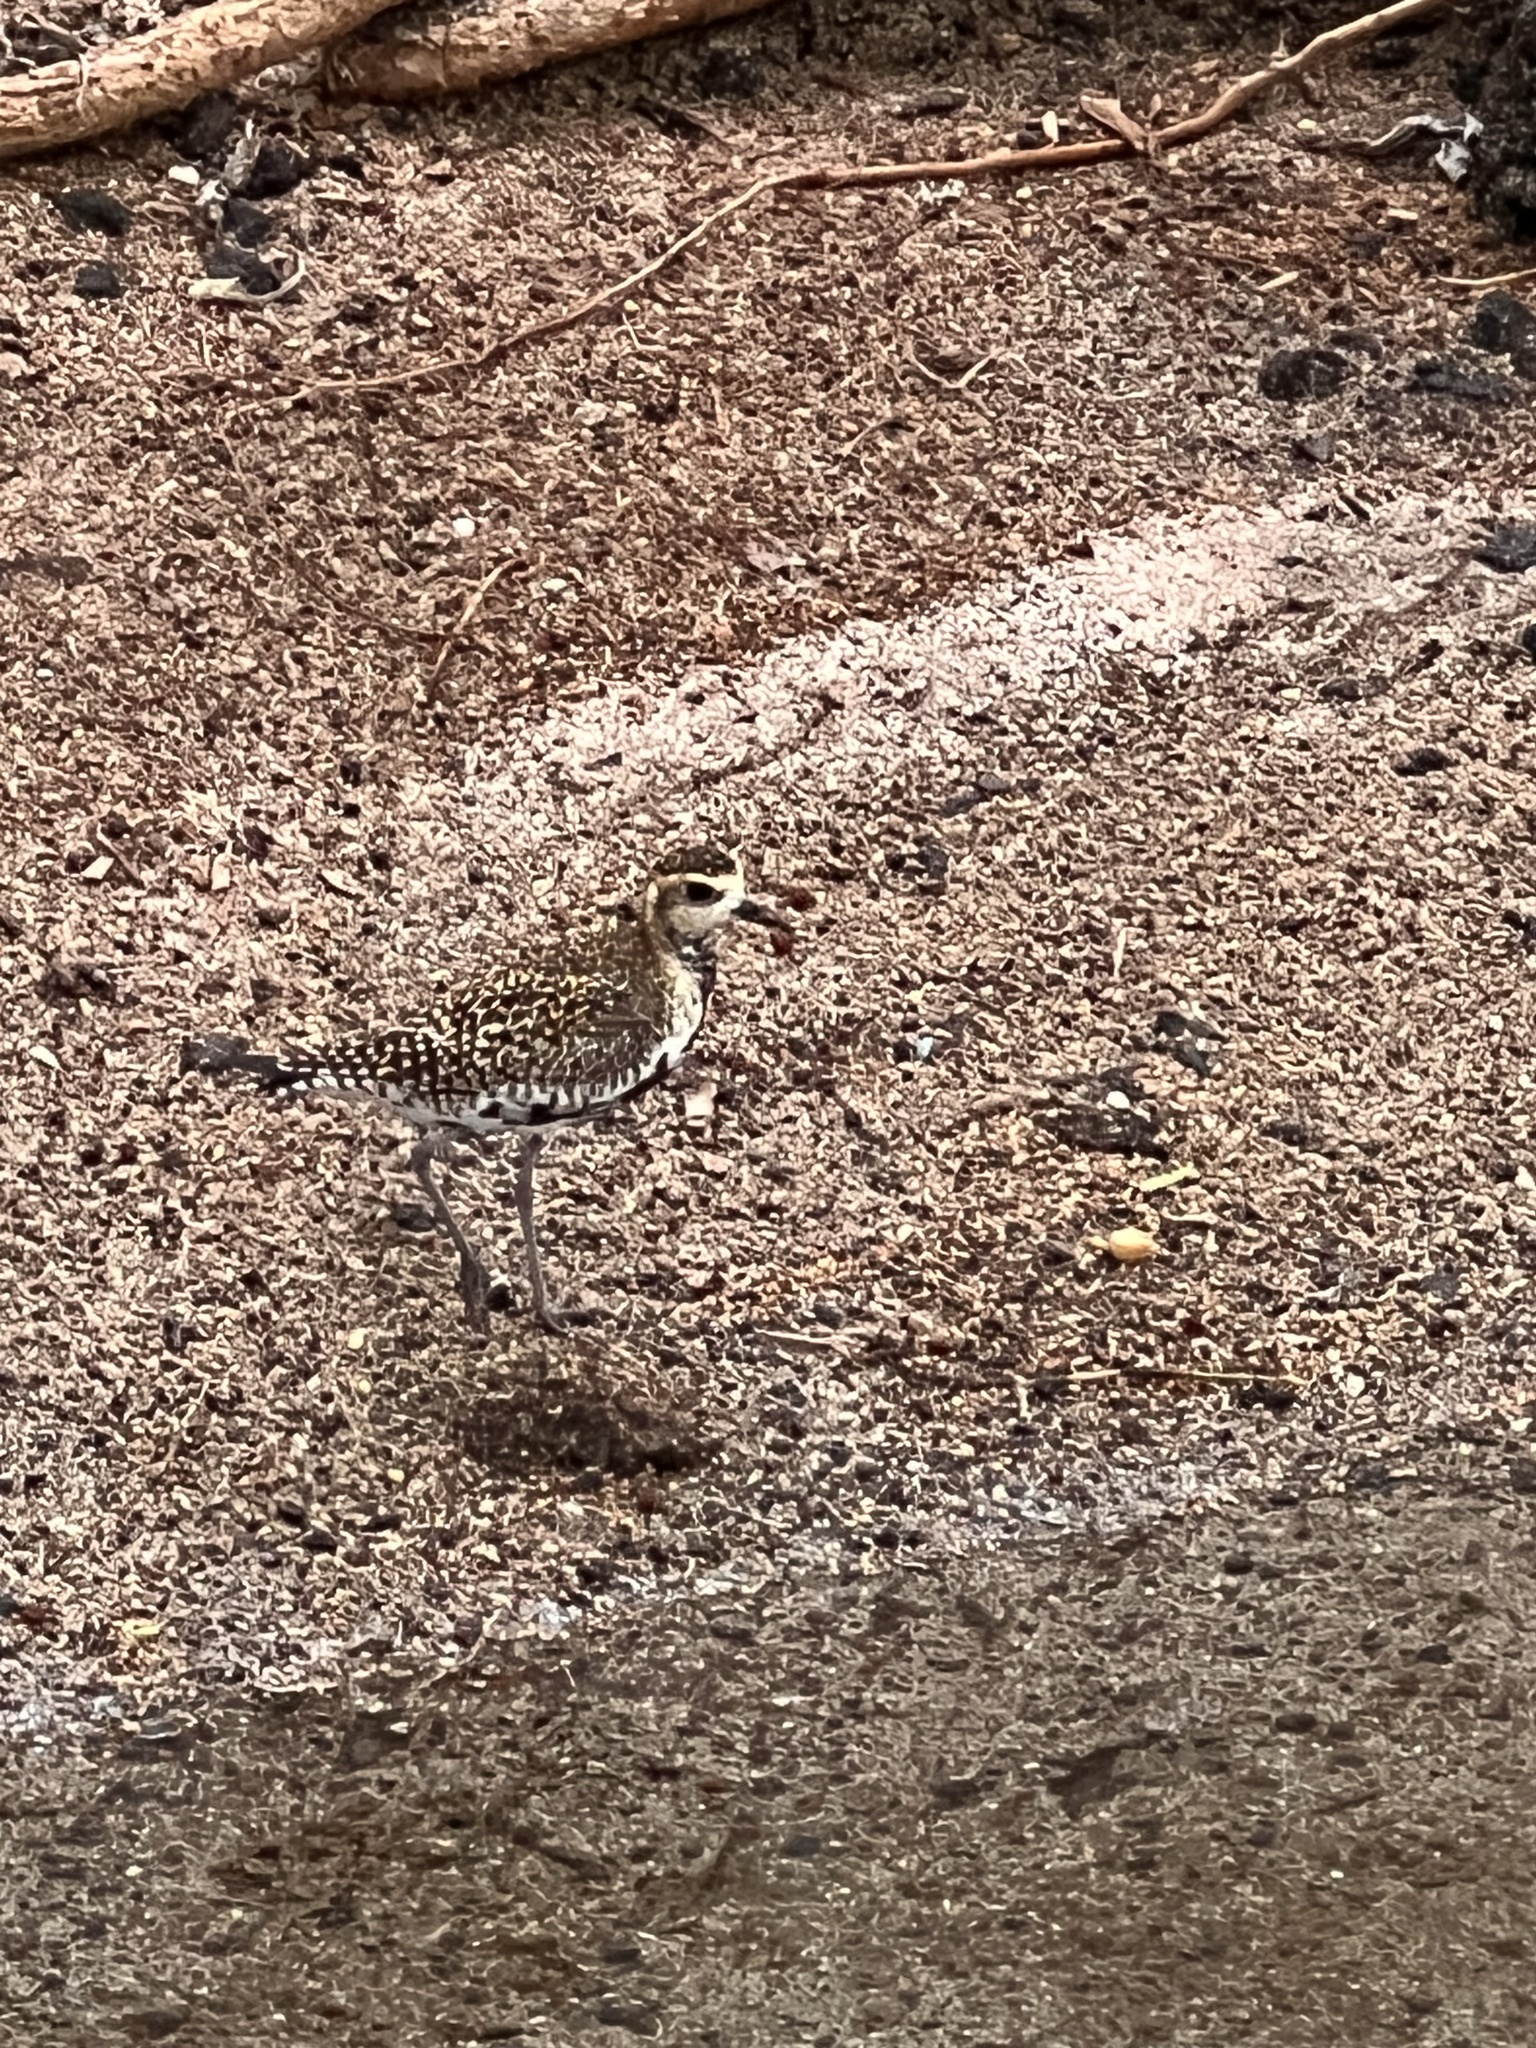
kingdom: Animalia
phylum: Chordata
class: Aves
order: Charadriiformes
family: Charadriidae
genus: Pluvialis
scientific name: Pluvialis fulva
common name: Pacific golden plover
